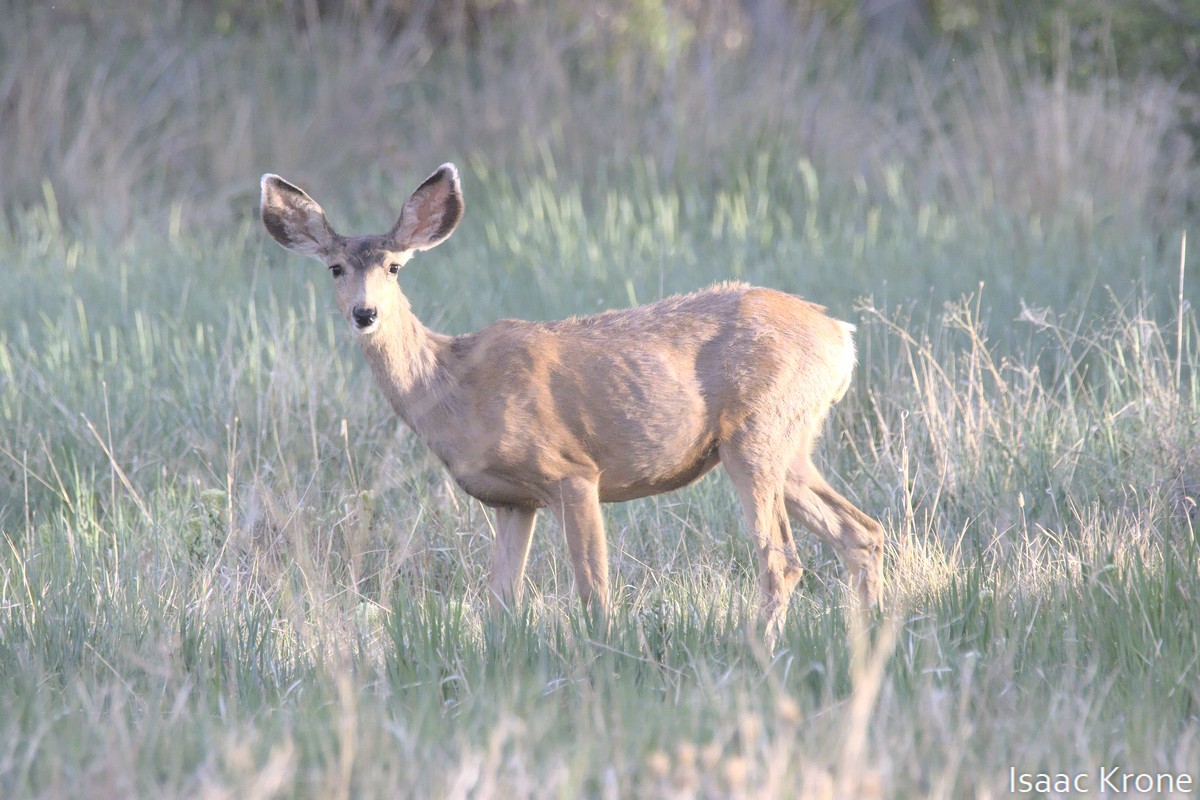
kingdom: Animalia
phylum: Chordata
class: Mammalia
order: Artiodactyla
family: Cervidae
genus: Odocoileus
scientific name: Odocoileus hemionus
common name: Mule deer
